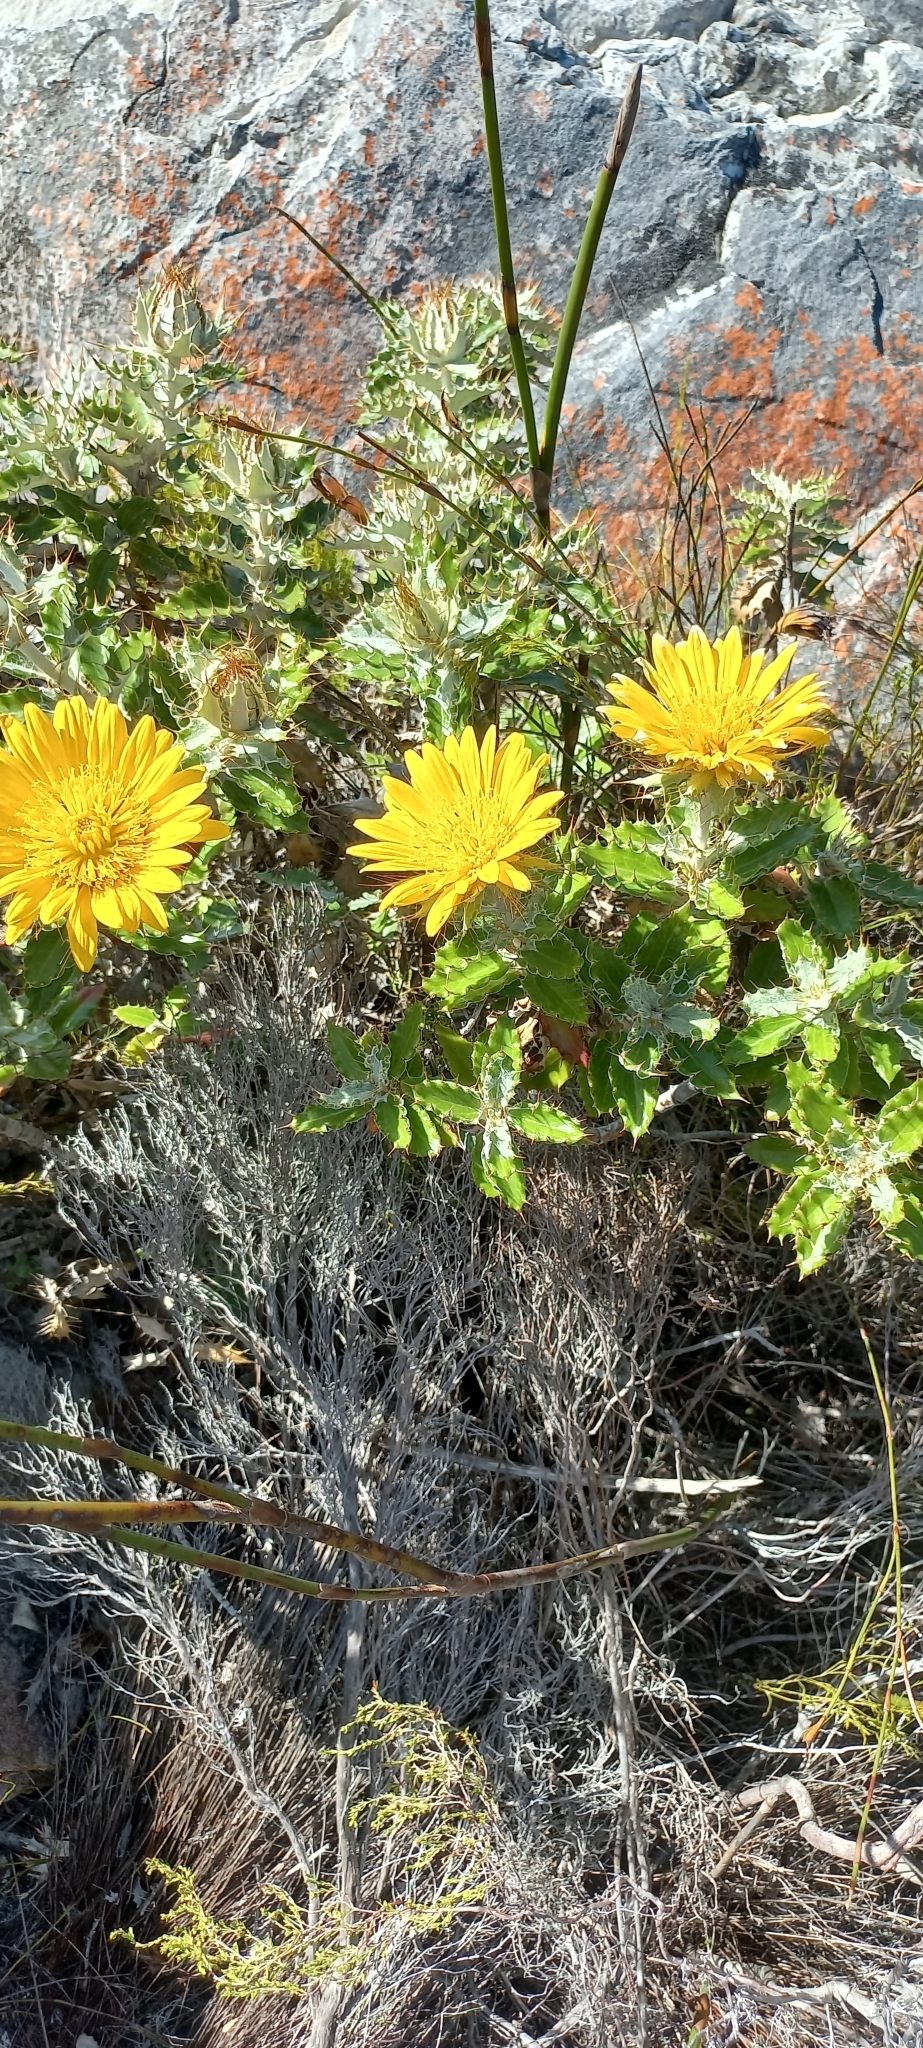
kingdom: Plantae
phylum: Tracheophyta
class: Magnoliopsida
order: Asterales
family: Asteraceae
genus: Berkheya
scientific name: Berkheya barbata
